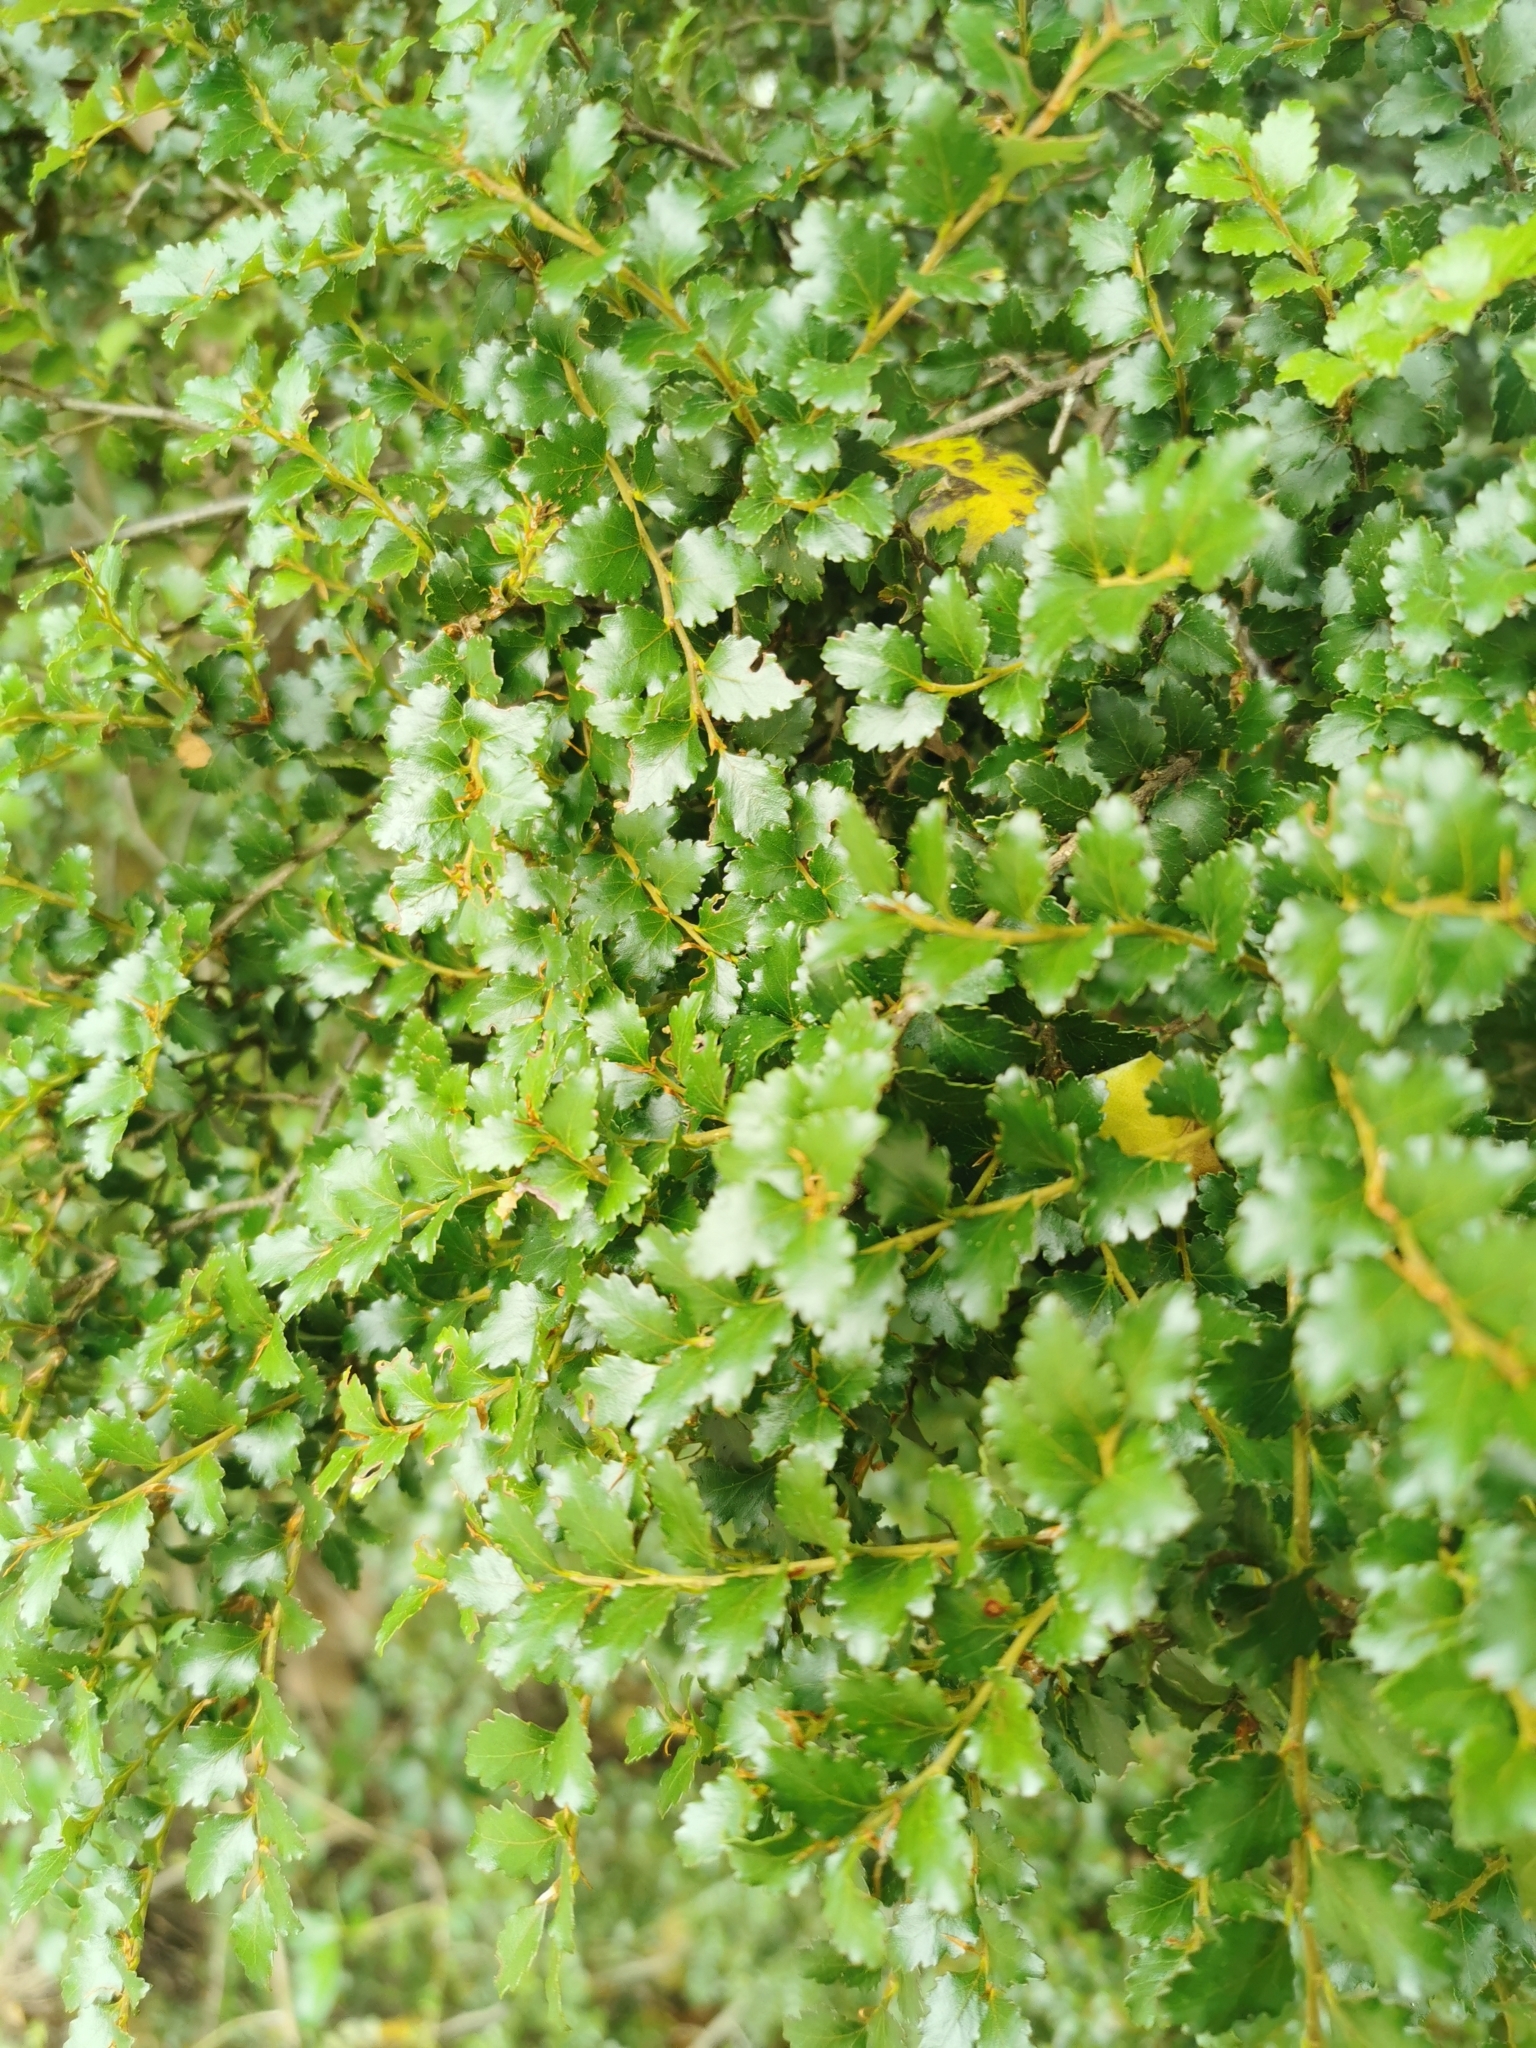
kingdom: Plantae
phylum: Tracheophyta
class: Magnoliopsida
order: Fagales
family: Nothofagaceae
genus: Nothofagus
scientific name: Nothofagus menziesii
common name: Silver beech
